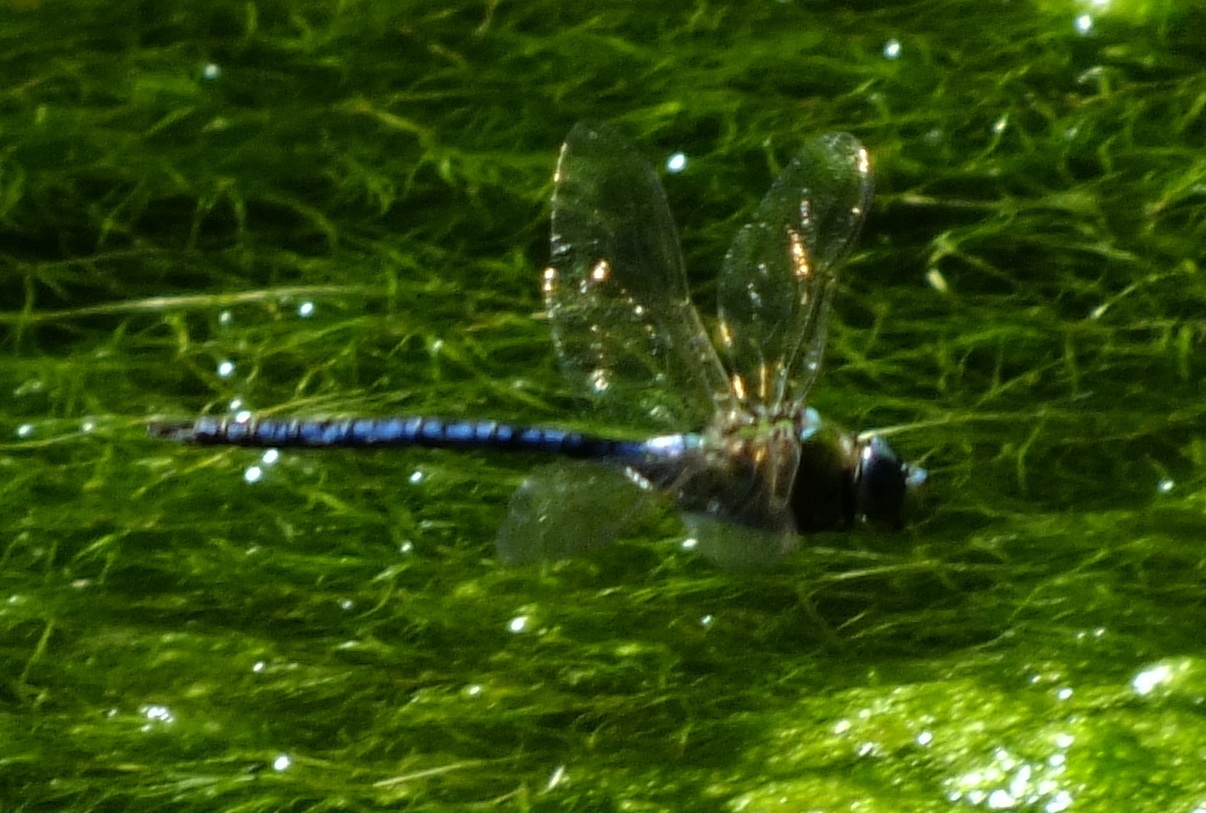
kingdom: Animalia
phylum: Arthropoda
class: Insecta
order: Odonata
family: Aeshnidae
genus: Anax
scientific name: Anax imperator
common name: Emperor dragonfly
